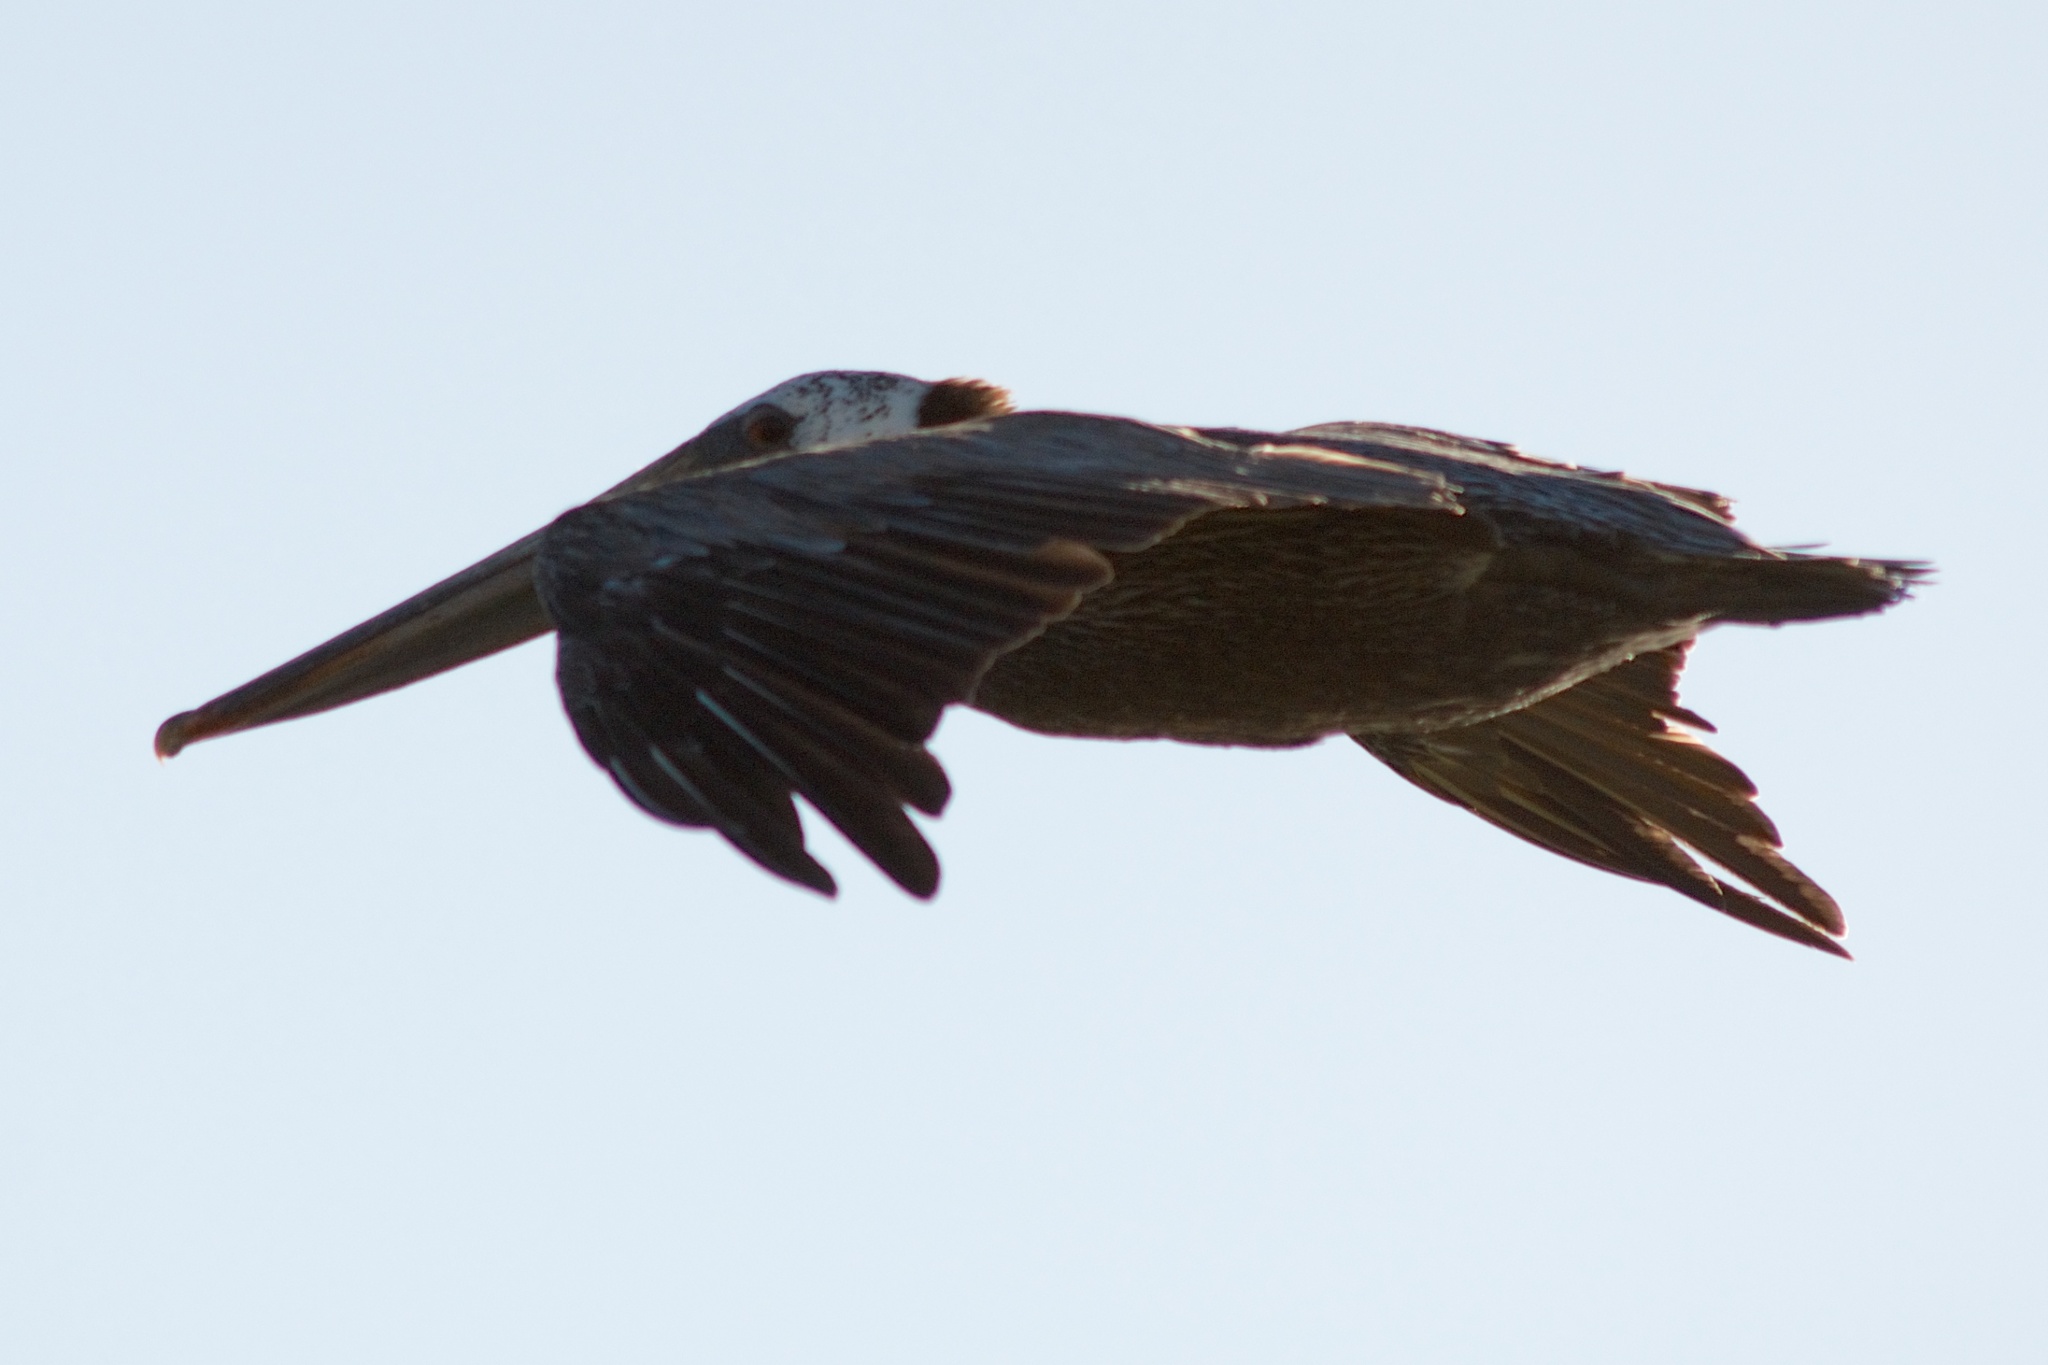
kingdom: Animalia
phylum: Chordata
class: Aves
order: Pelecaniformes
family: Pelecanidae
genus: Pelecanus
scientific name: Pelecanus occidentalis
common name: Brown pelican
